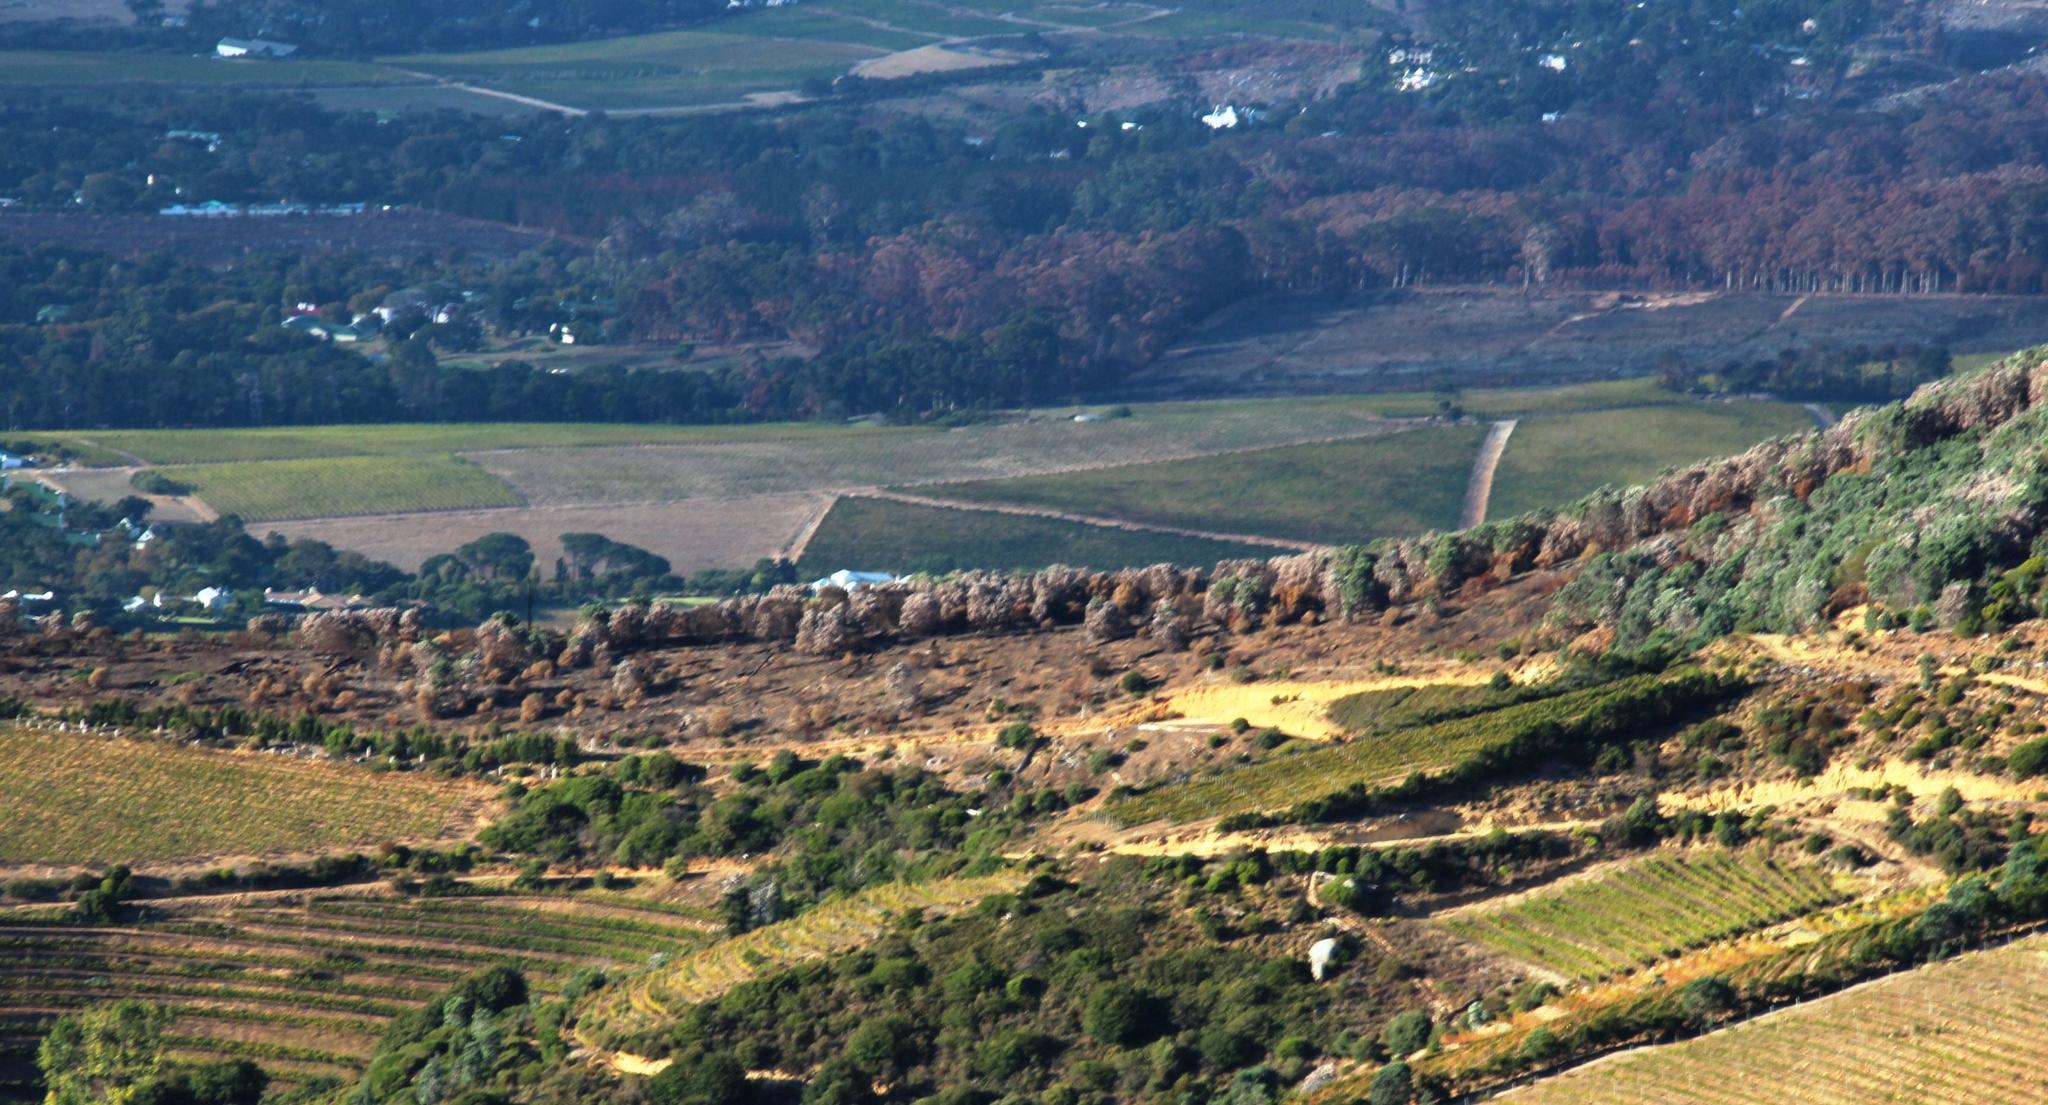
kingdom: Plantae
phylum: Tracheophyta
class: Magnoliopsida
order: Proteales
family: Proteaceae
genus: Leucadendron
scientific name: Leucadendron argenteum
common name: Cape silver tree
